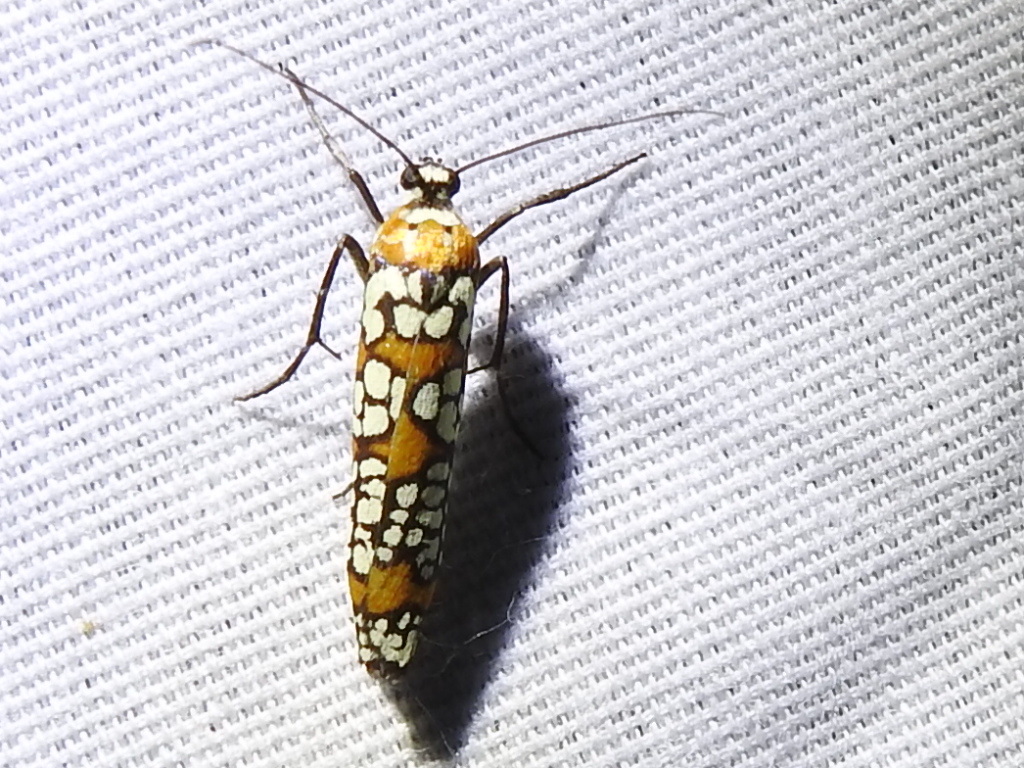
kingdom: Animalia
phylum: Arthropoda
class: Insecta
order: Lepidoptera
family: Attevidae
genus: Atteva
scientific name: Atteva punctella
